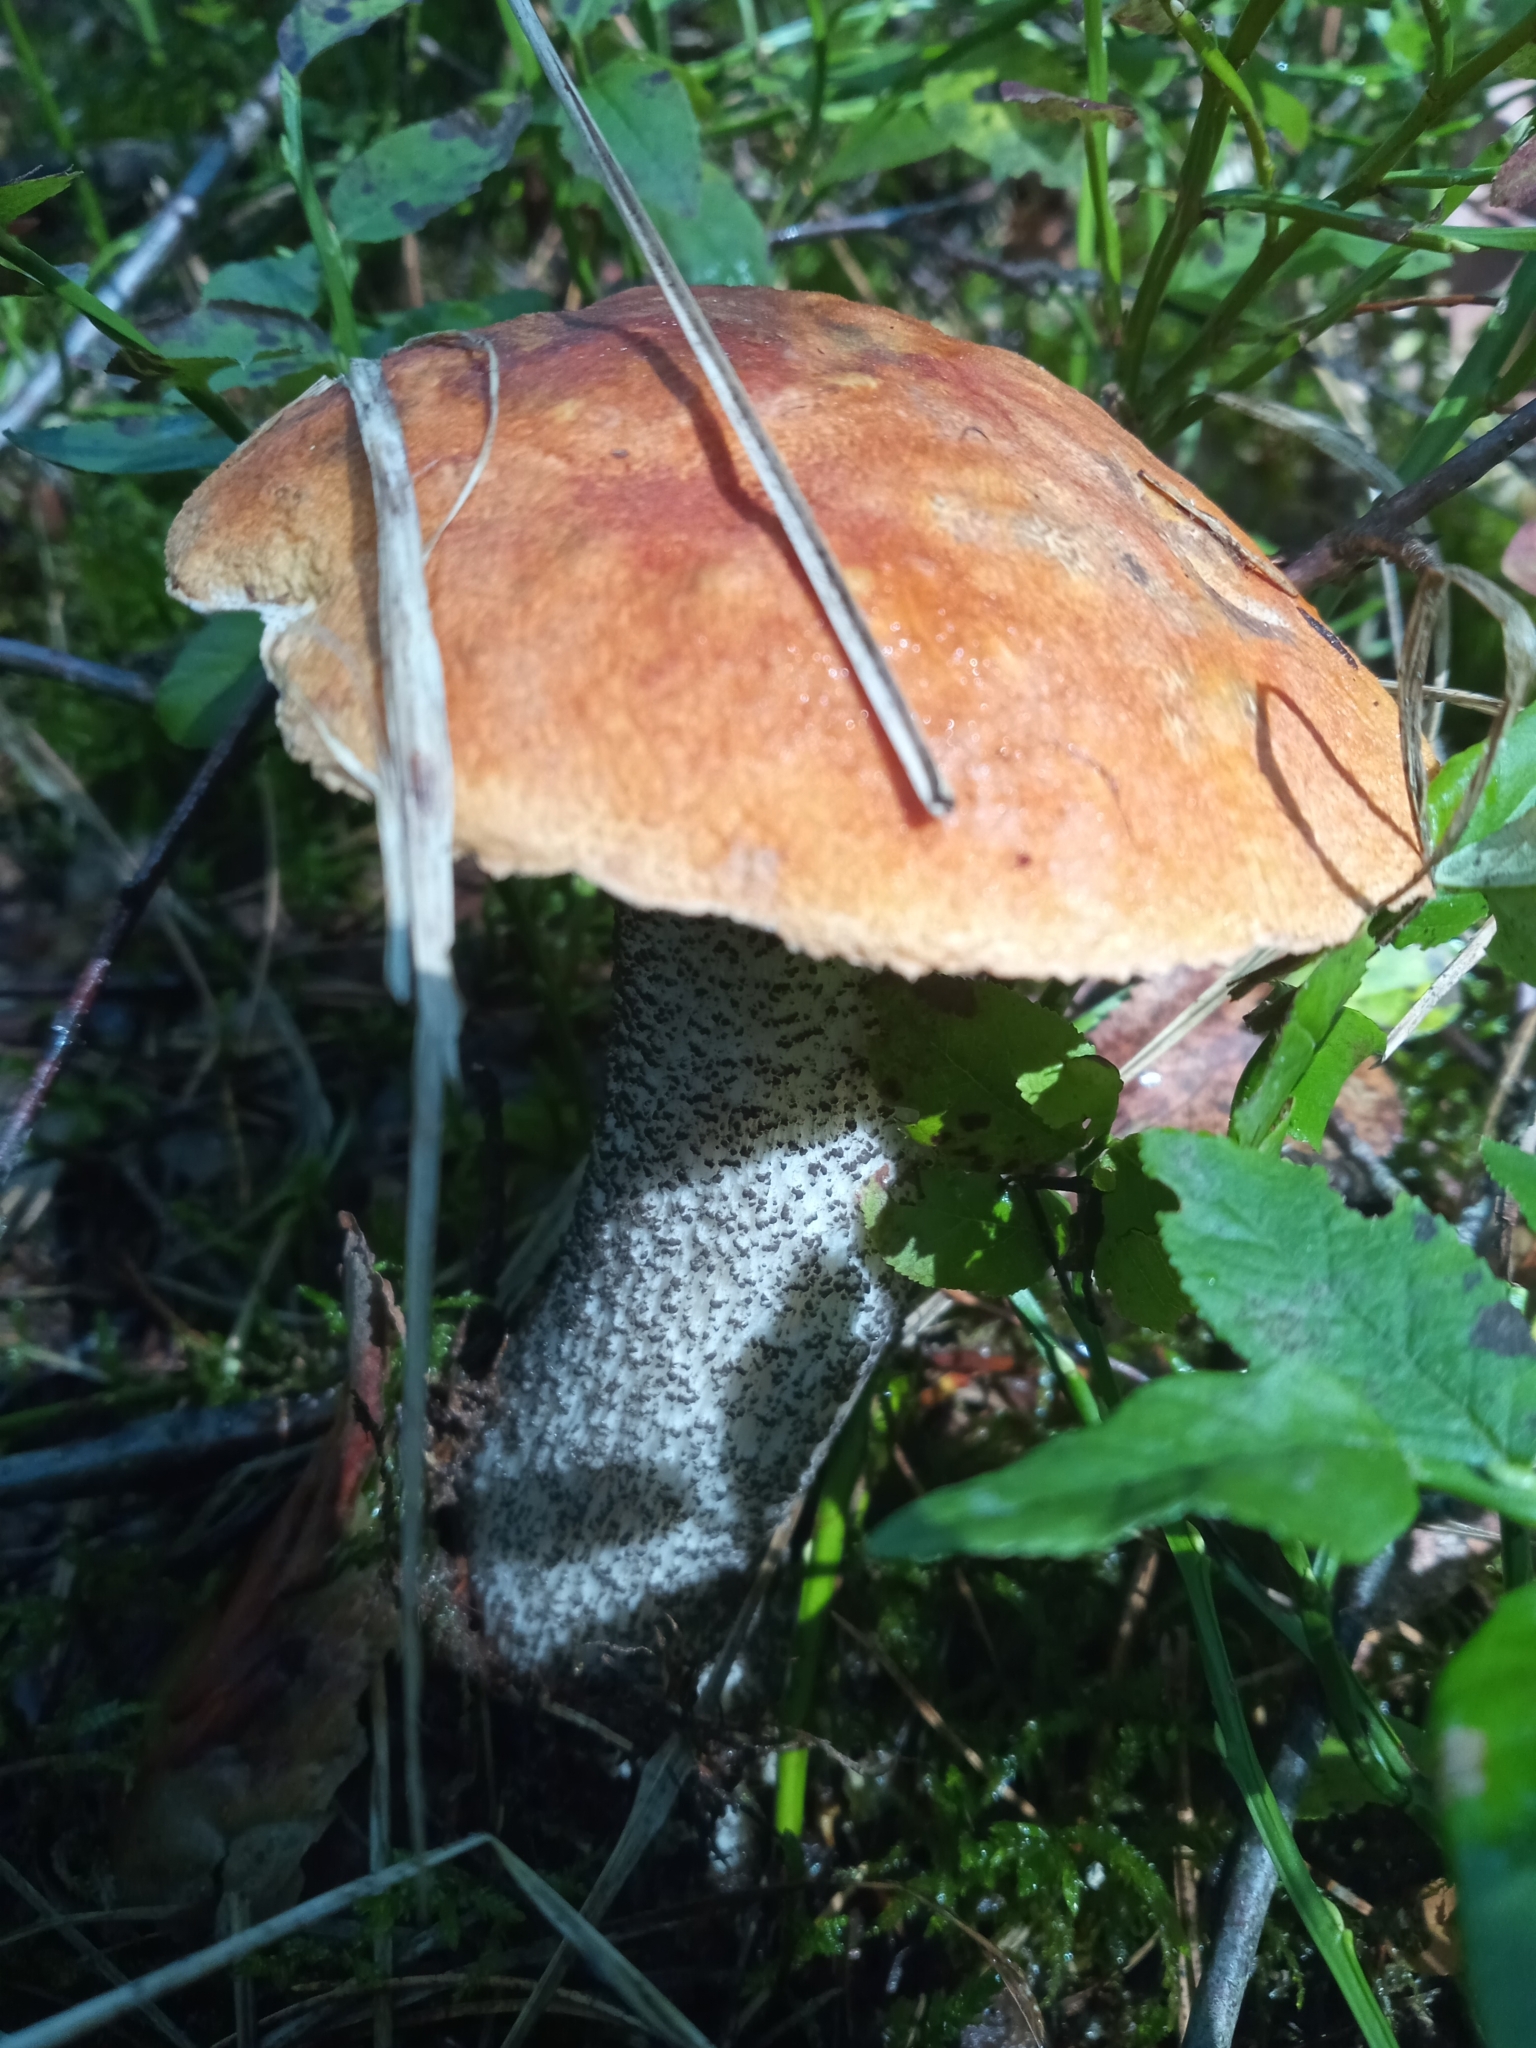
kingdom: Fungi
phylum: Basidiomycota
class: Agaricomycetes
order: Boletales
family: Boletaceae
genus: Leccinum
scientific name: Leccinum versipelle
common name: Orange birch bolete
